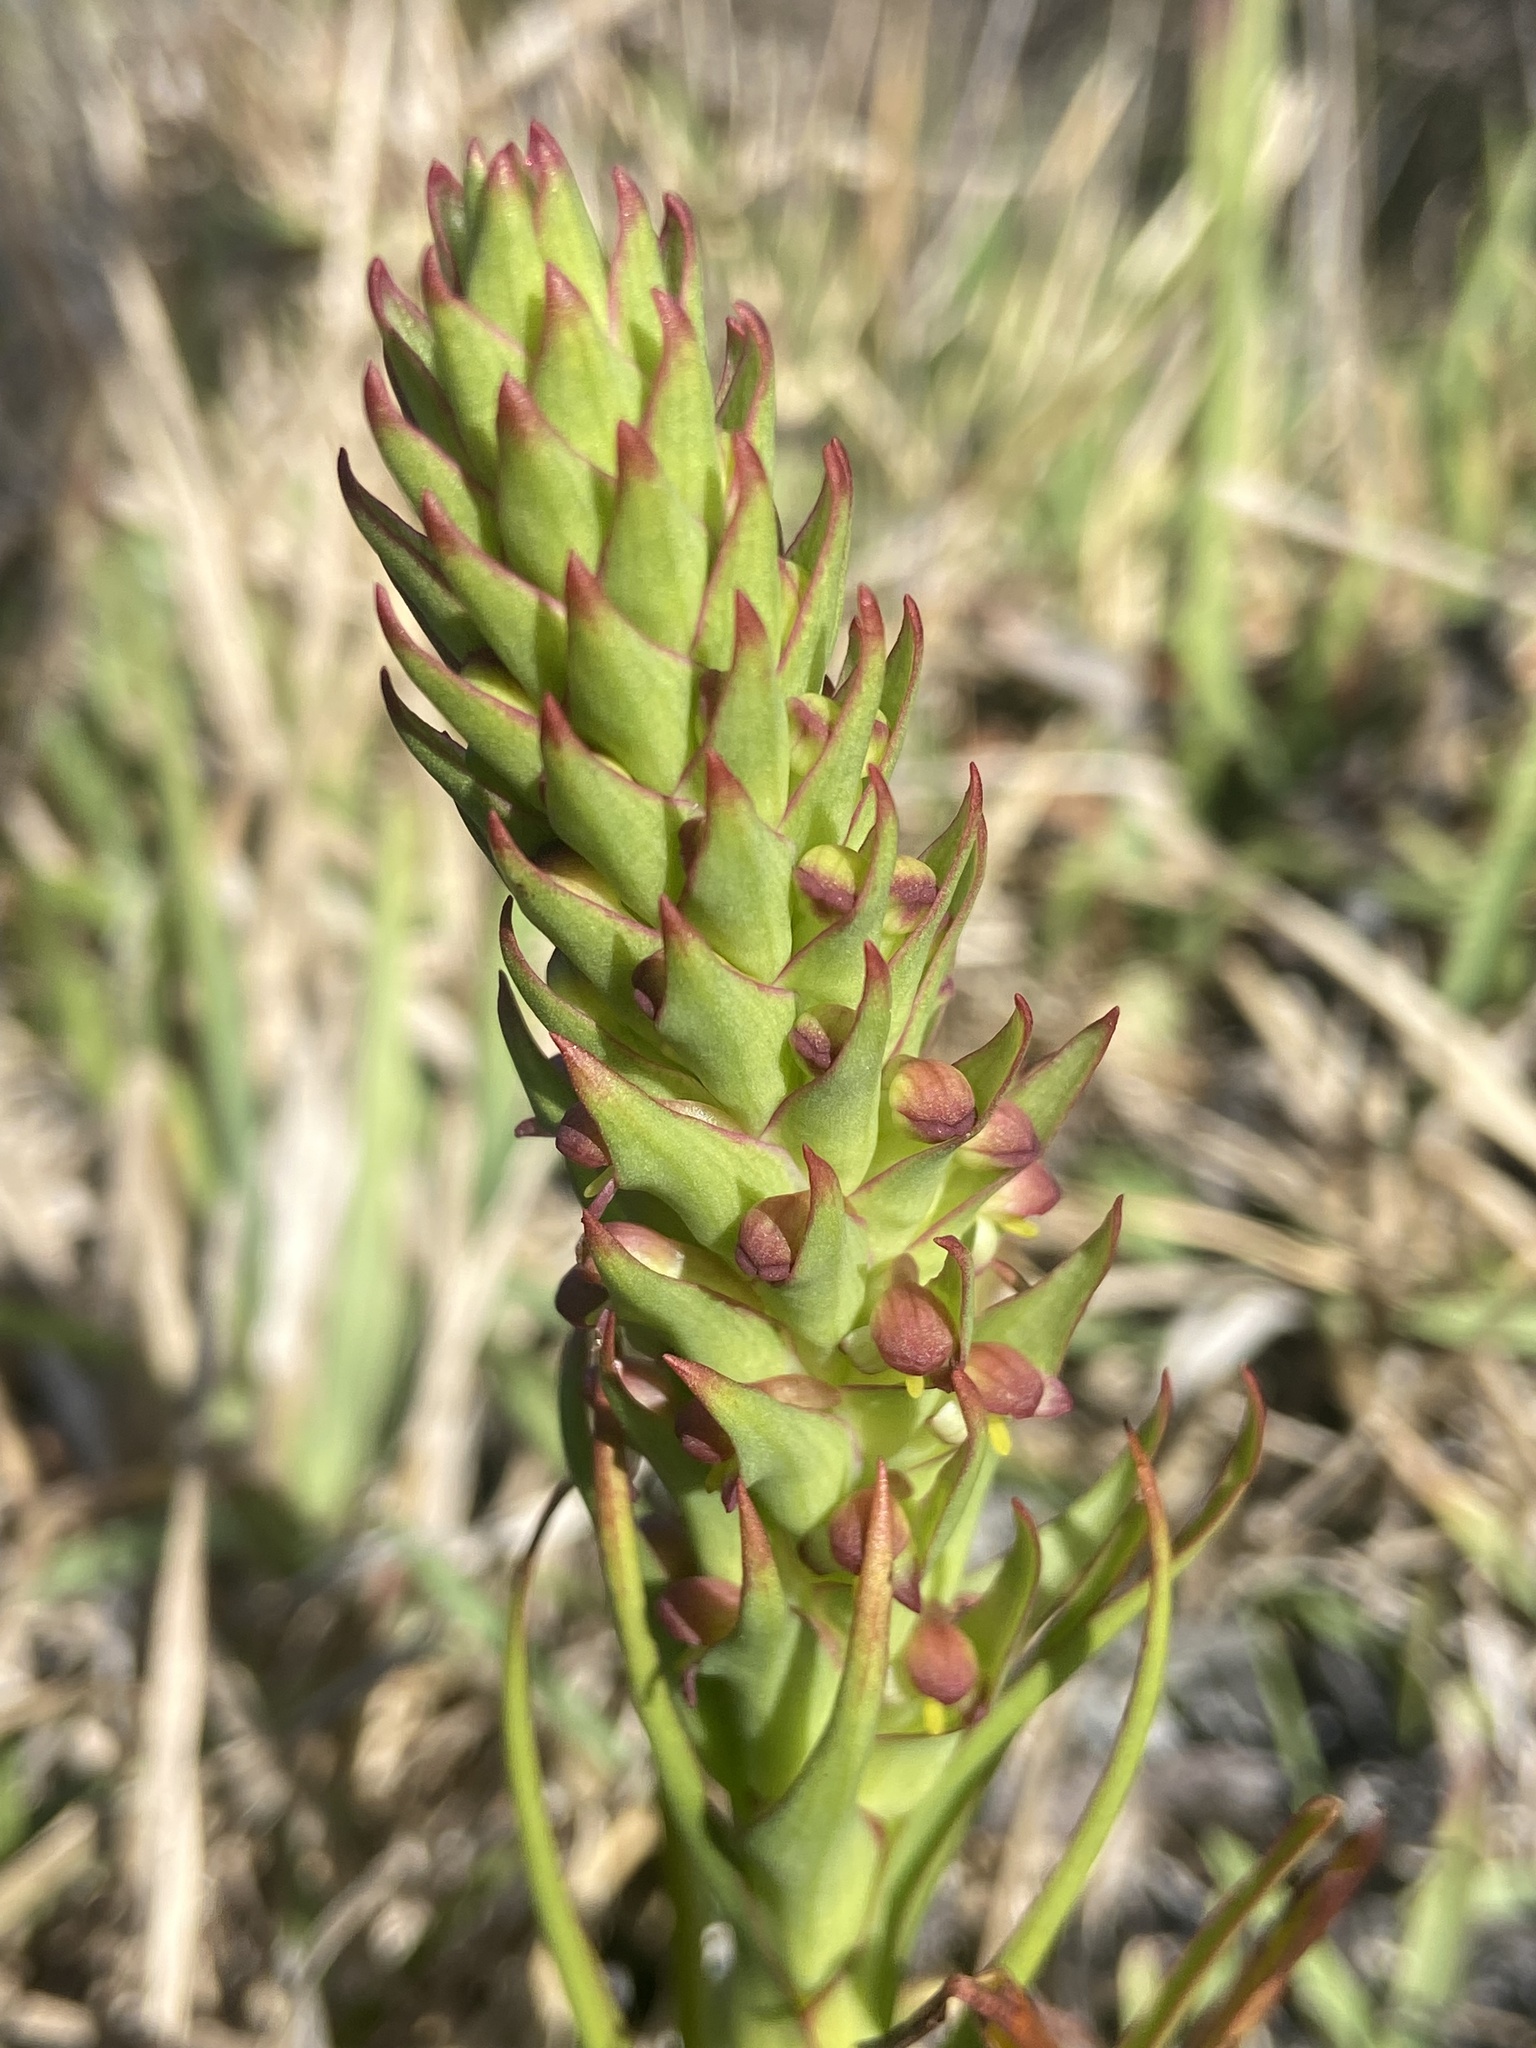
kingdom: Plantae
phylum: Tracheophyta
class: Liliopsida
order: Asparagales
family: Orchidaceae
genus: Disa
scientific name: Disa bracteata
